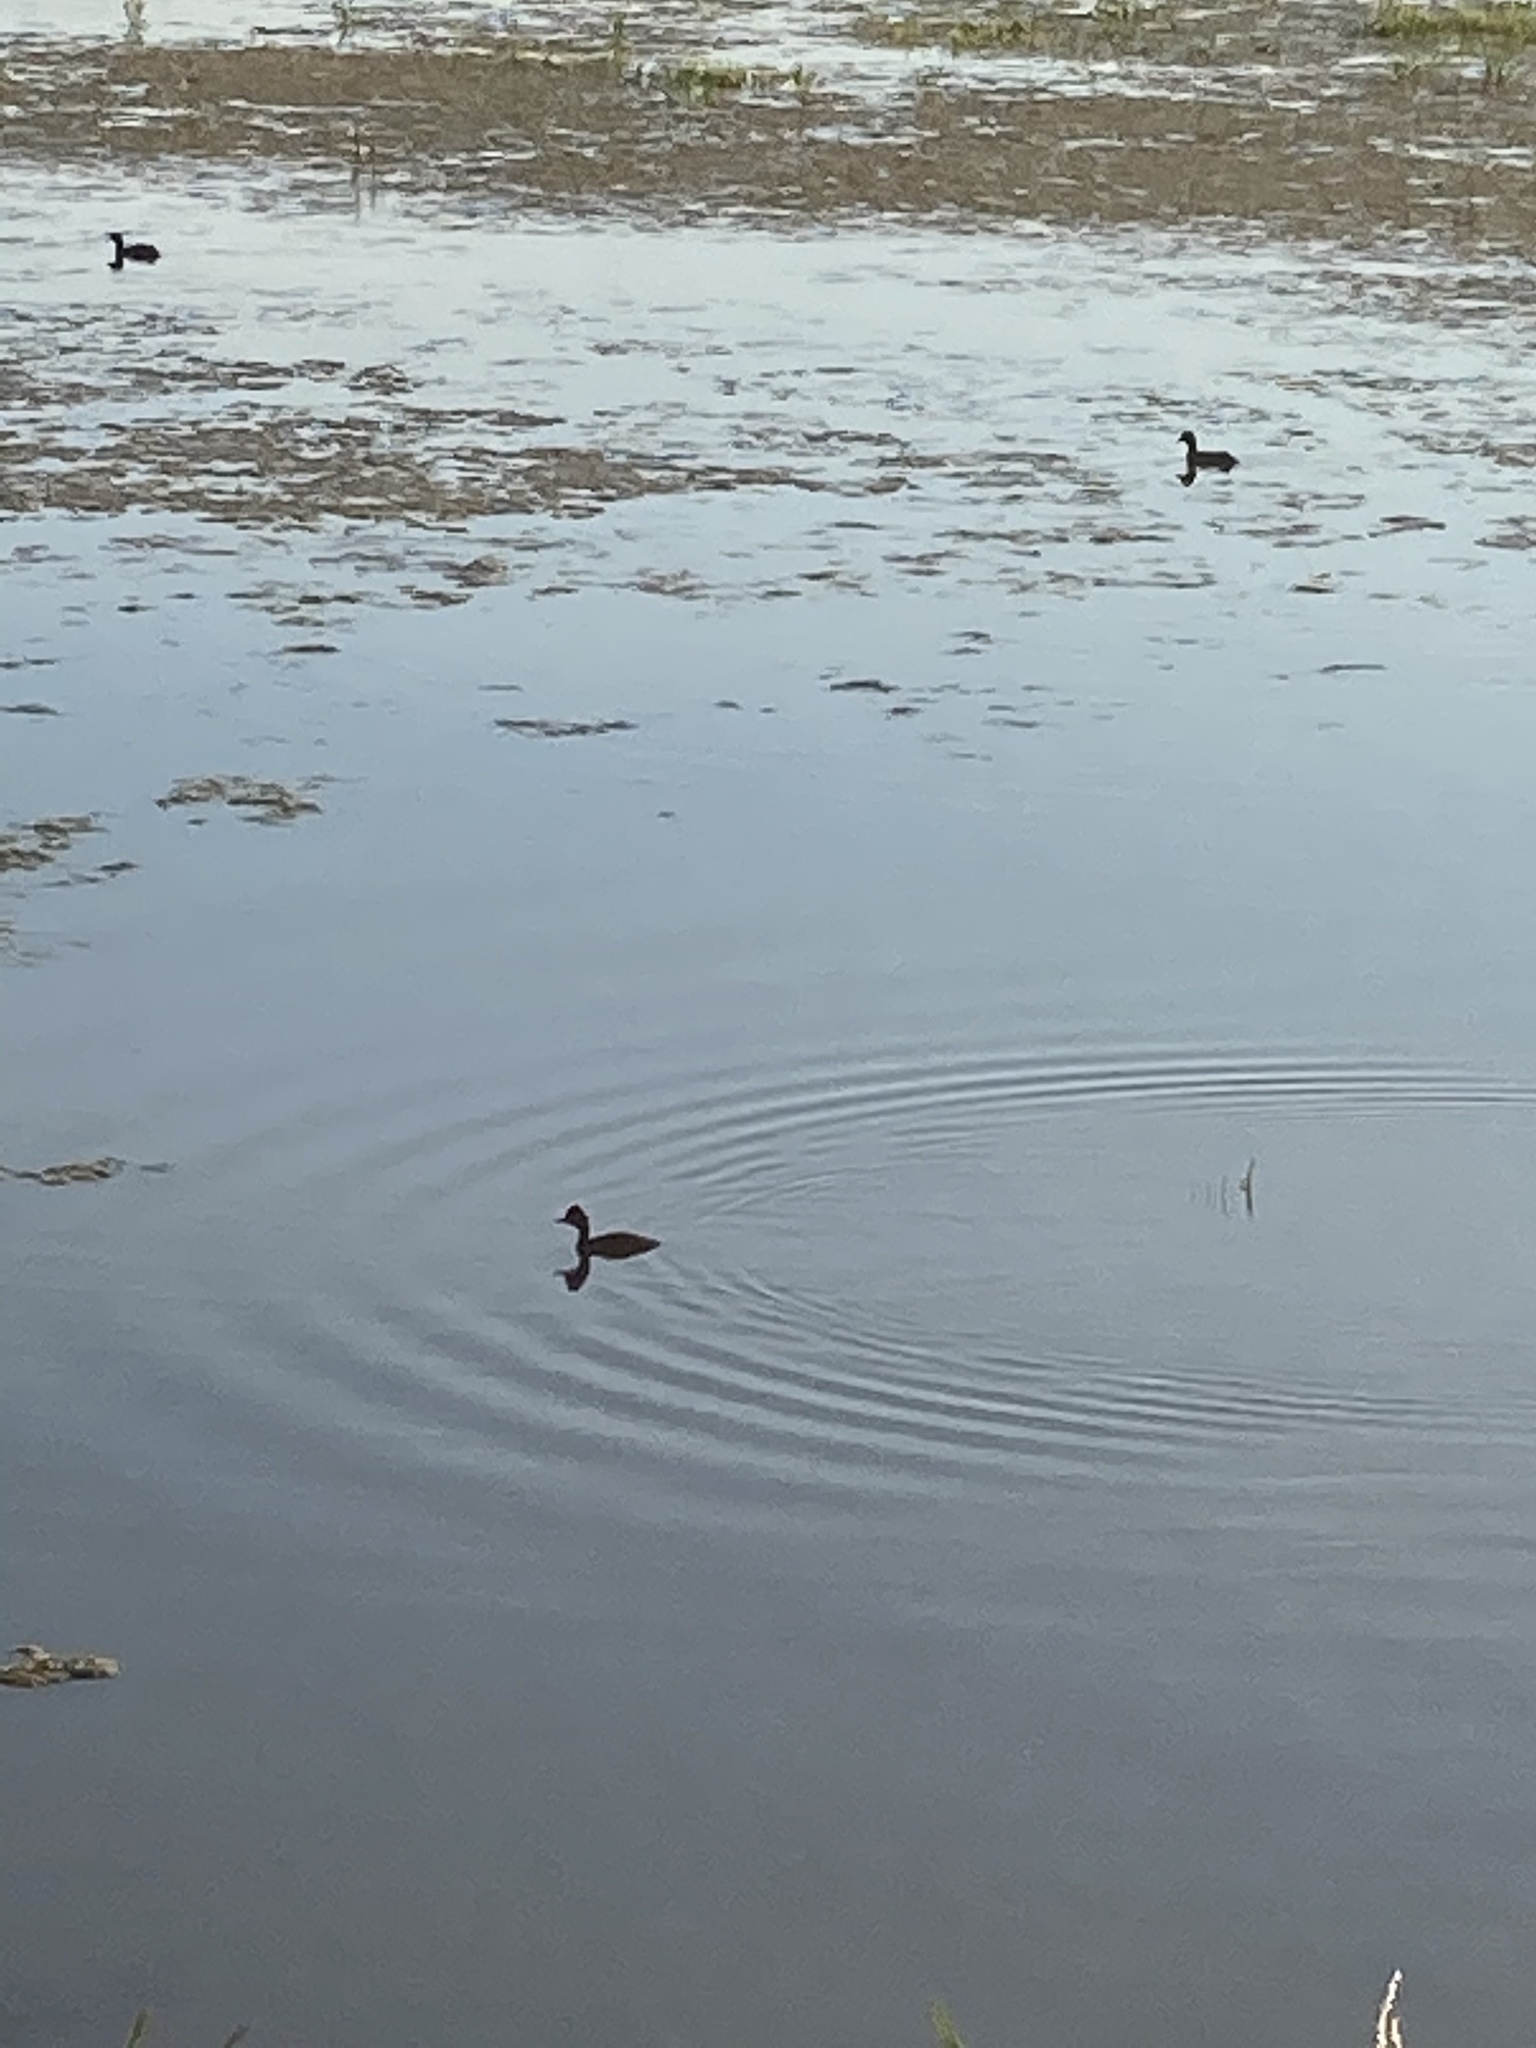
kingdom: Animalia
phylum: Chordata
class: Aves
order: Podicipediformes
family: Podicipedidae
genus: Podiceps
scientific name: Podiceps nigricollis
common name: Black-necked grebe
